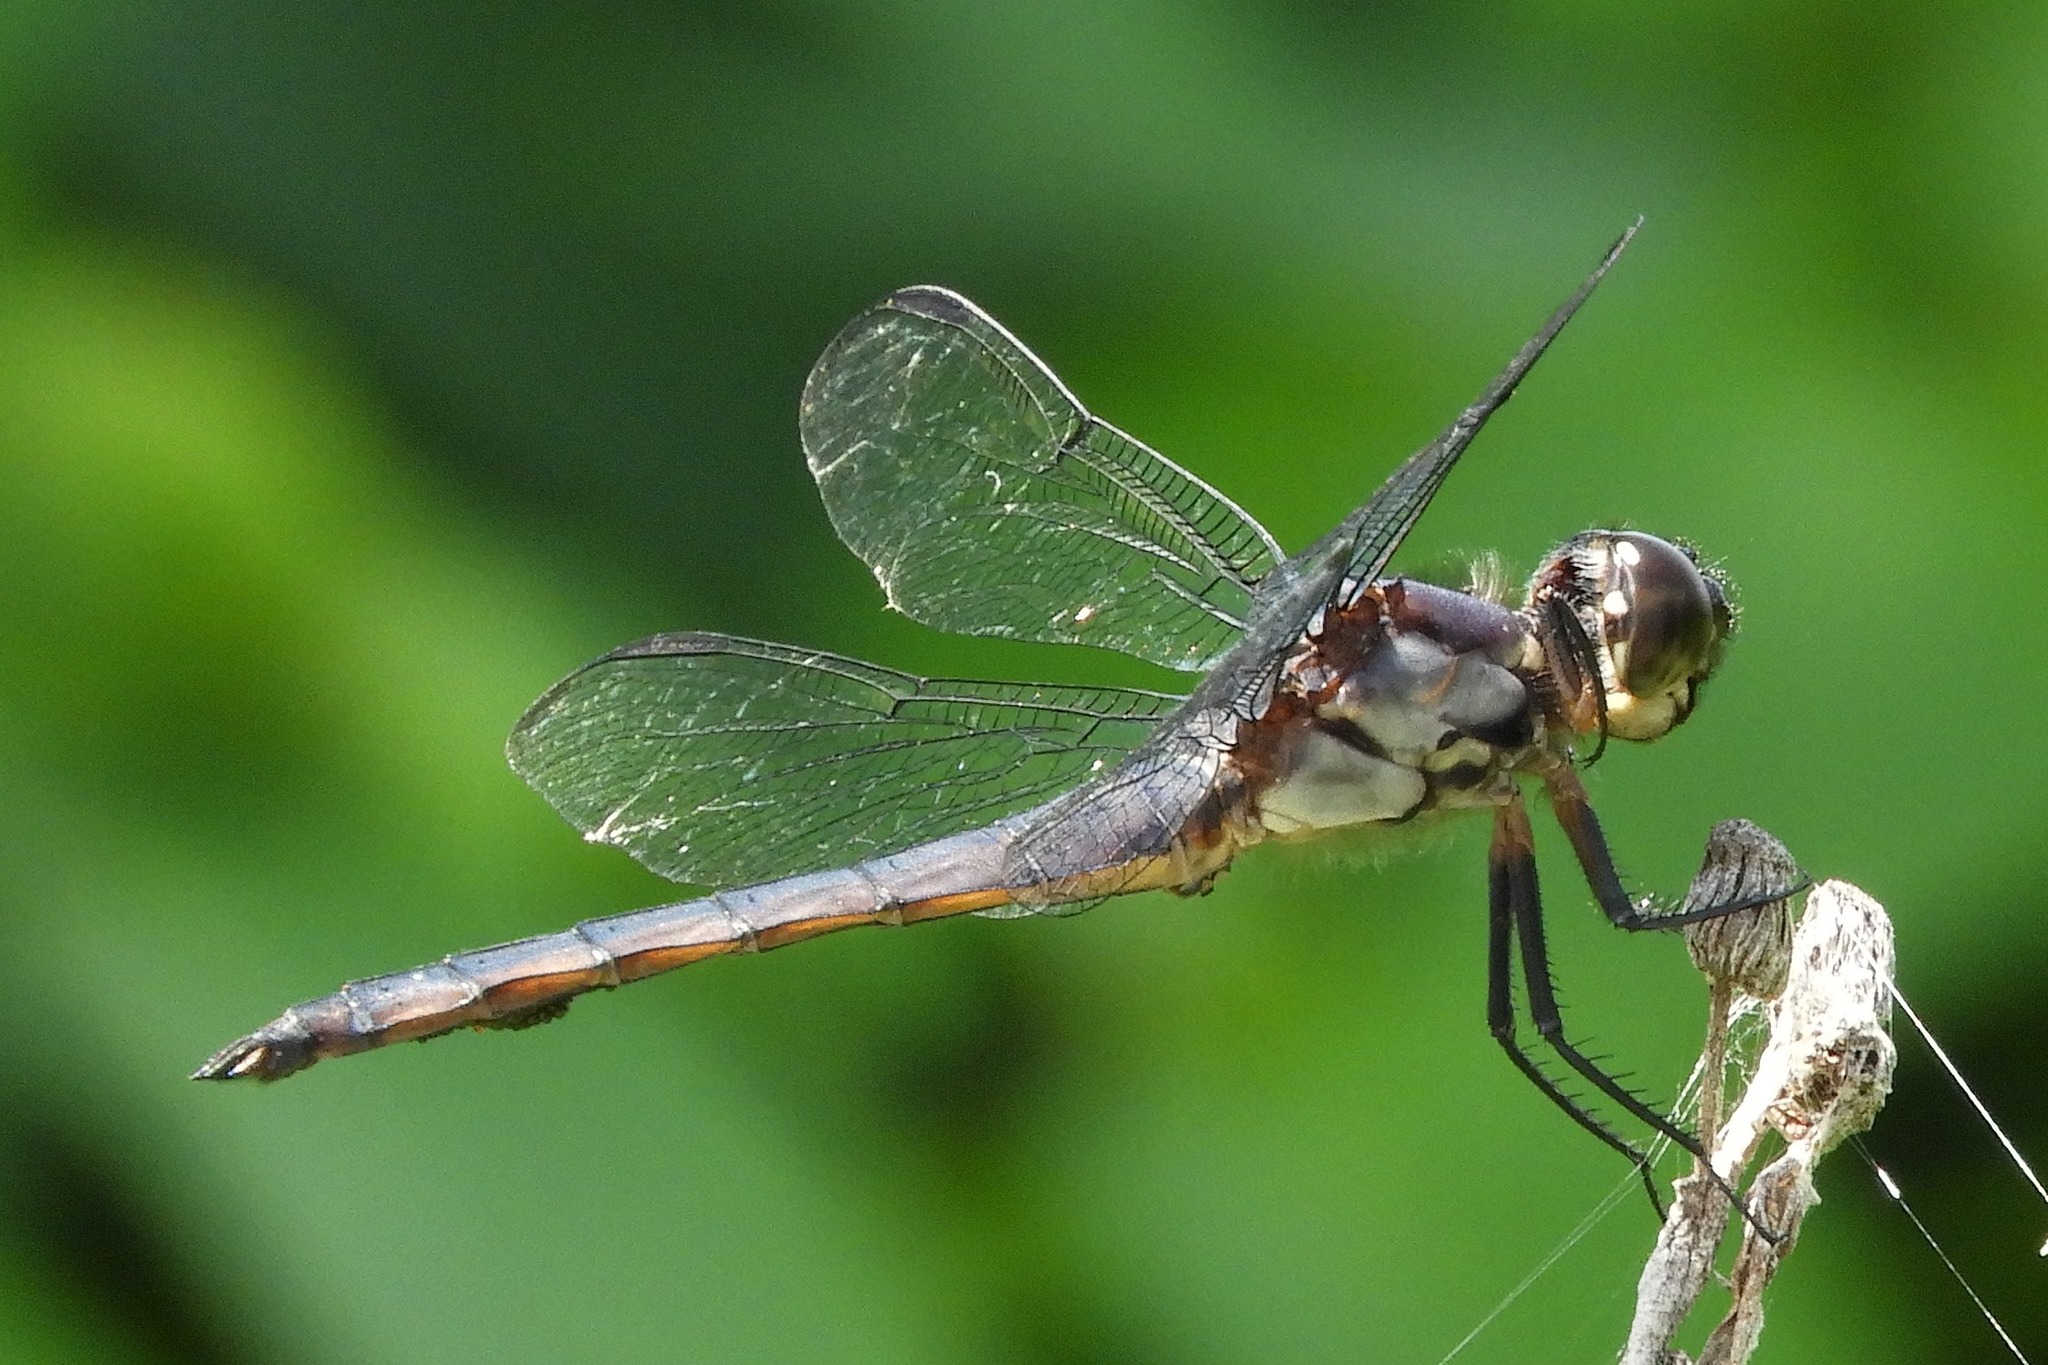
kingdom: Animalia
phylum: Arthropoda
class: Insecta
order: Odonata
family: Libellulidae
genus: Libellula
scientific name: Libellula incesta
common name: Slaty skimmer
